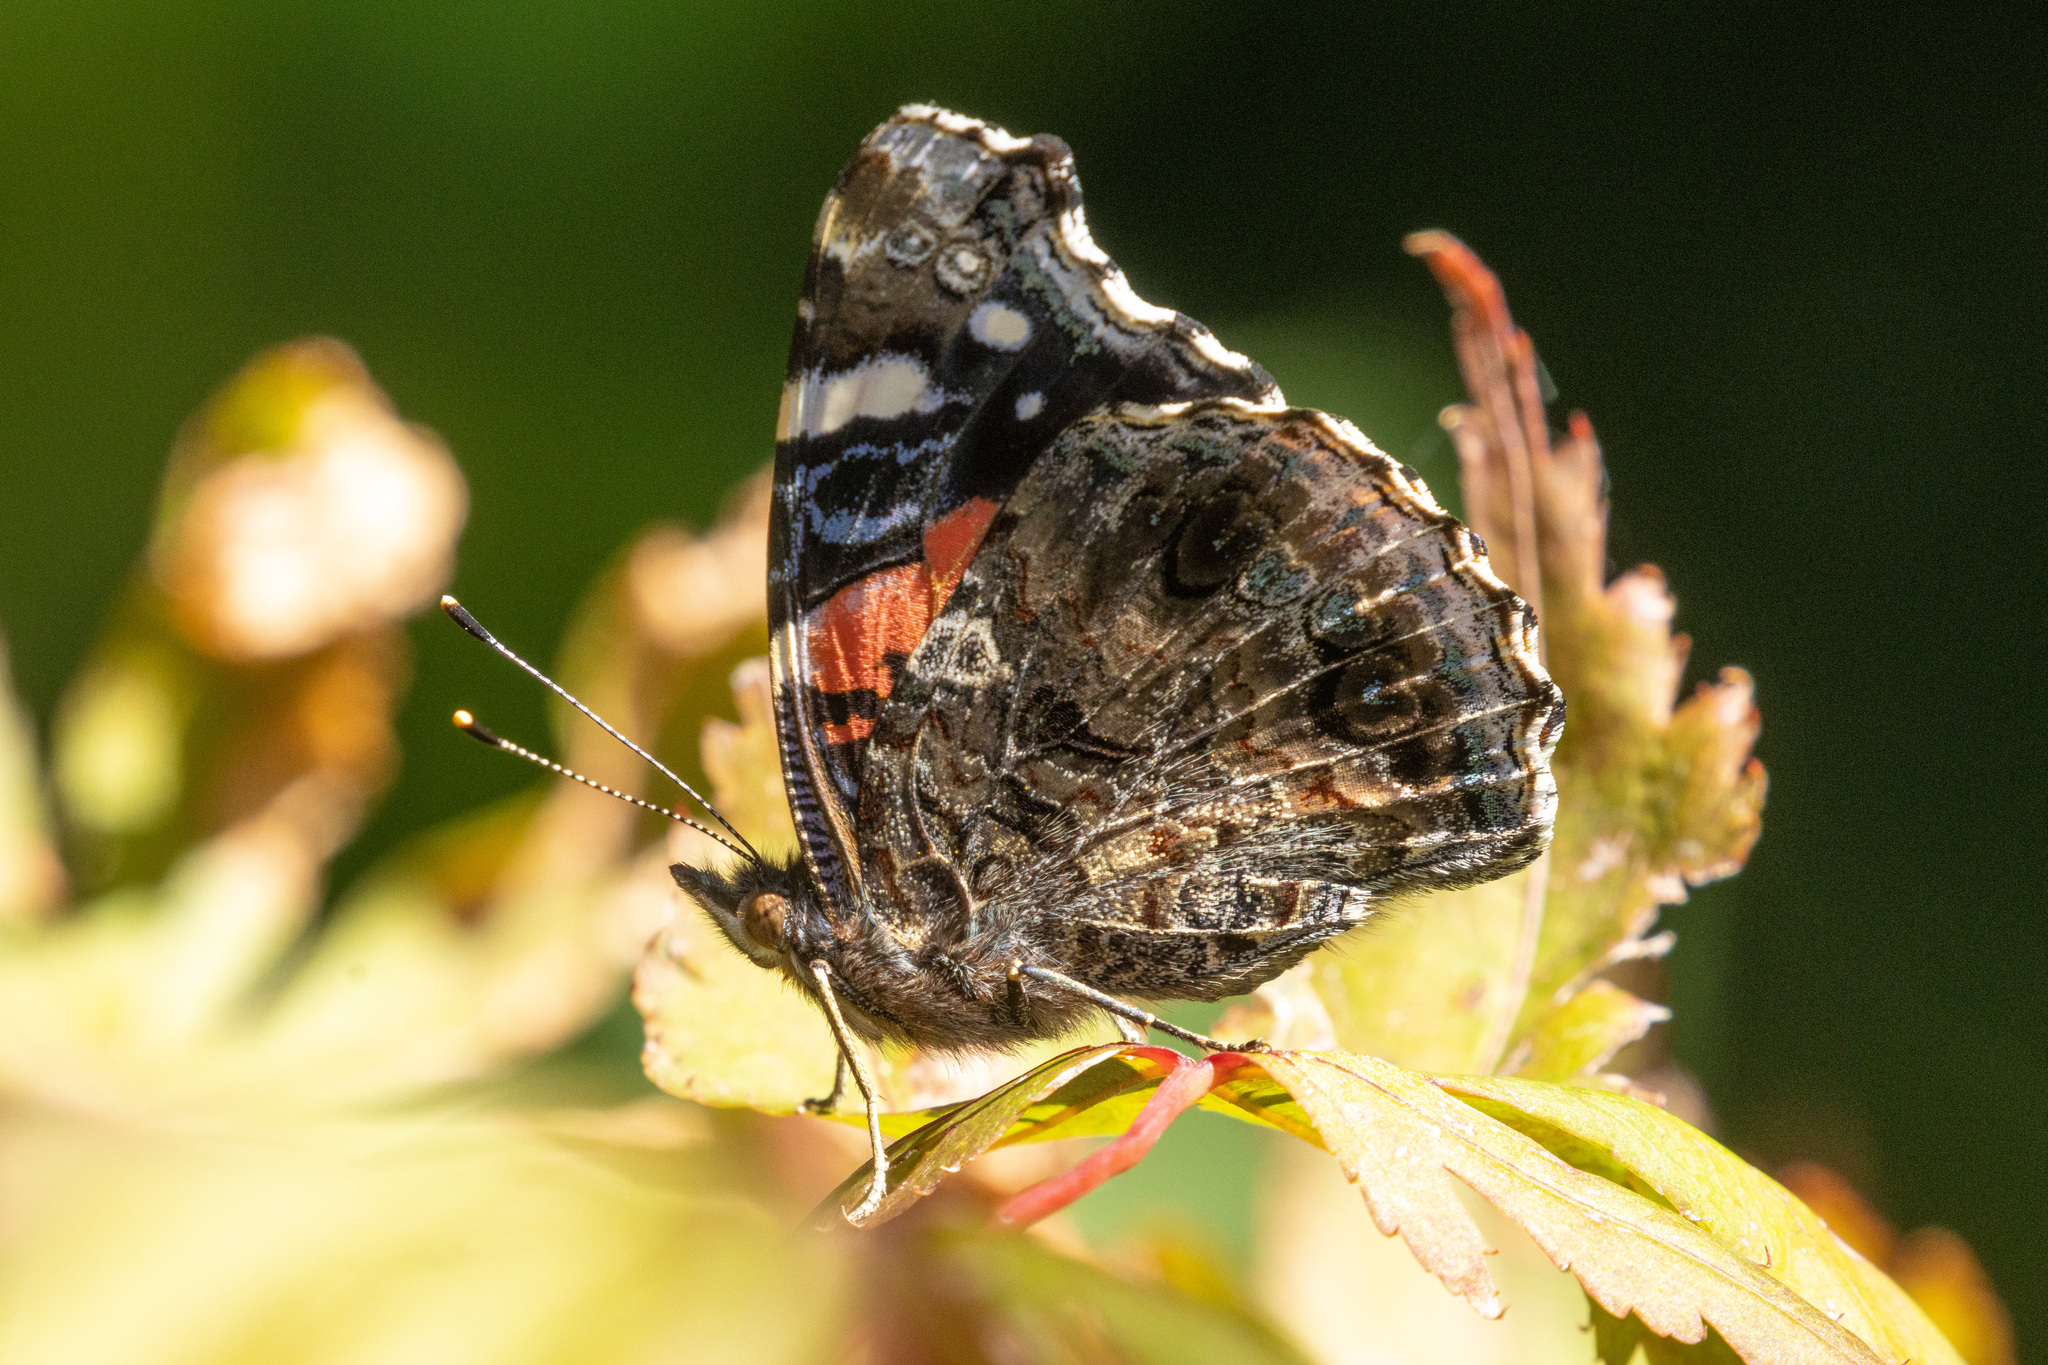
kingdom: Animalia
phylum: Arthropoda
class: Insecta
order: Lepidoptera
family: Nymphalidae
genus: Vanessa
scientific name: Vanessa atalanta
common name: Red admiral
